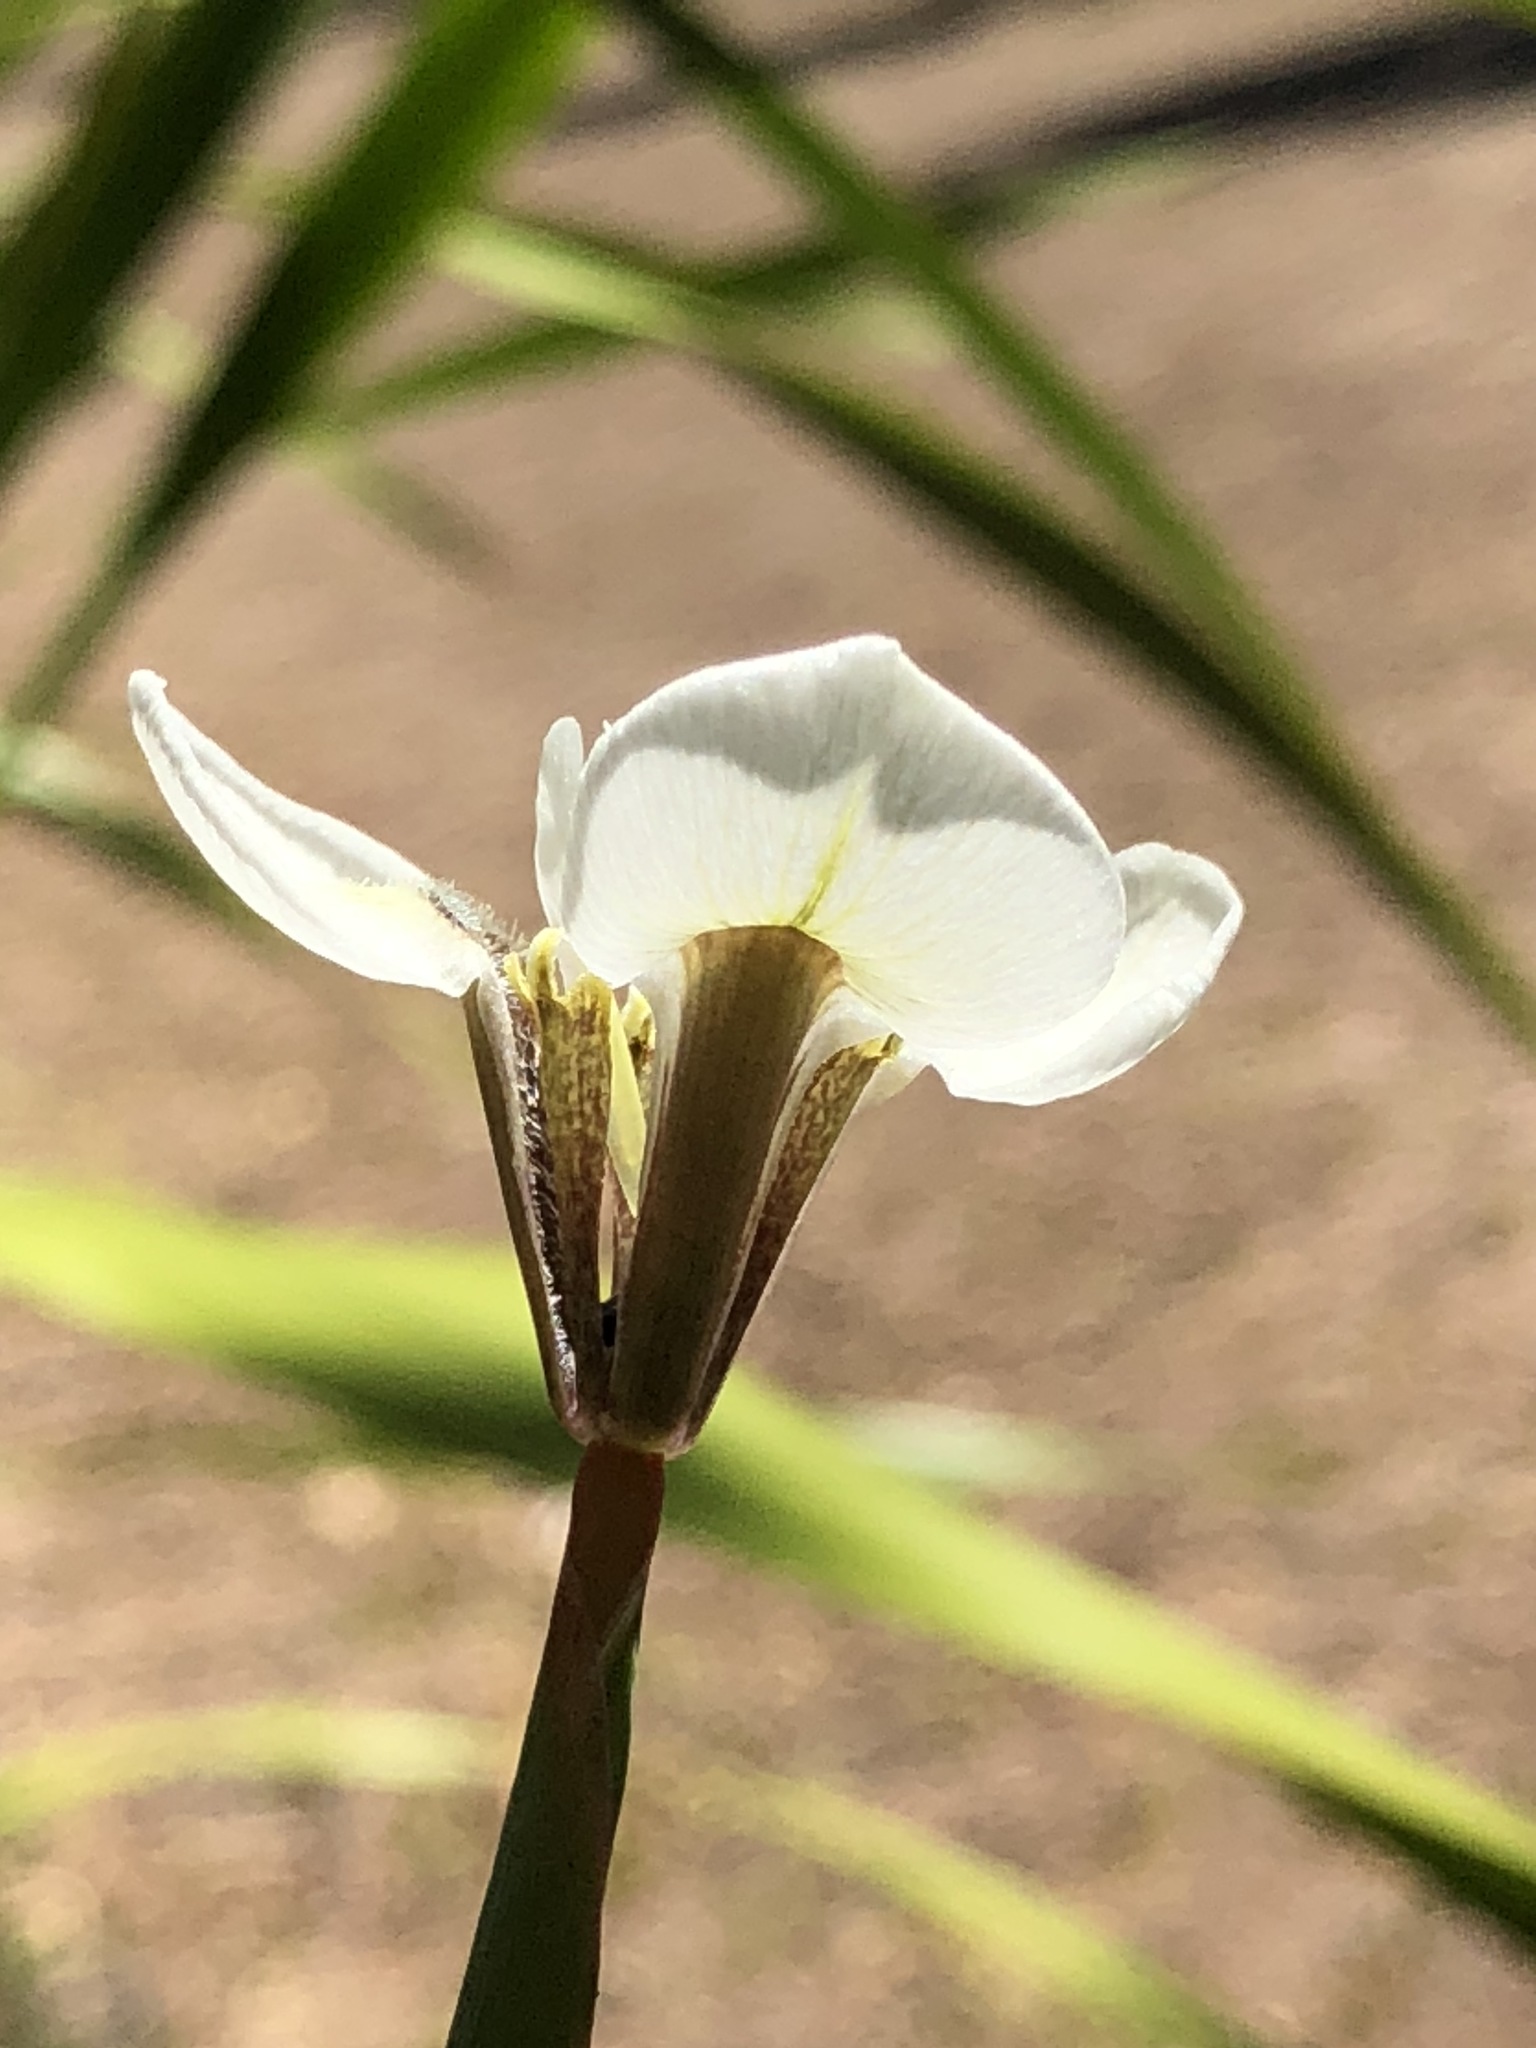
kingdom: Plantae
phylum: Tracheophyta
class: Liliopsida
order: Asparagales
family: Iridaceae
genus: Moraea
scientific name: Moraea tricuspidata
